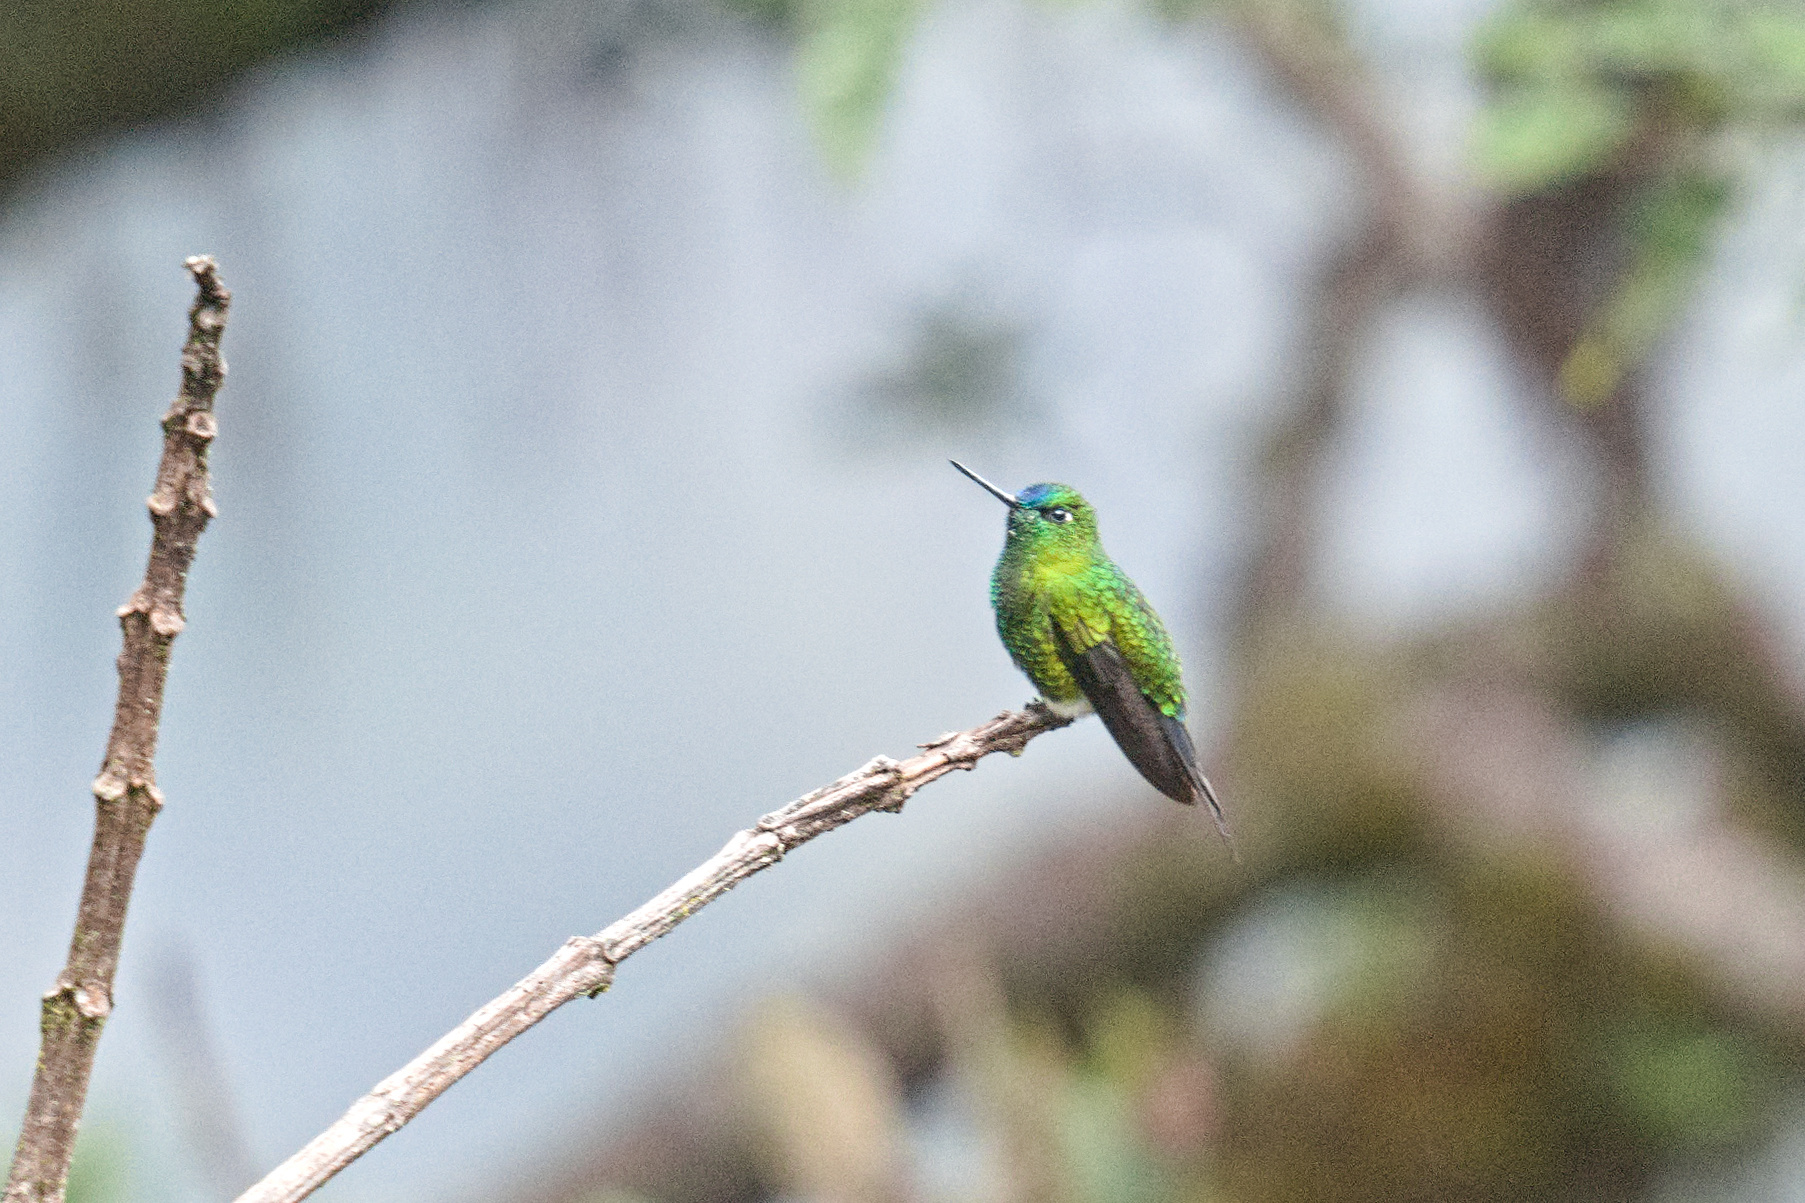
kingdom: Animalia
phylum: Chordata
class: Aves
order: Apodiformes
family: Trochilidae
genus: Eriocnemis
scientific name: Eriocnemis luciani
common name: Sapphire-vented puffleg
